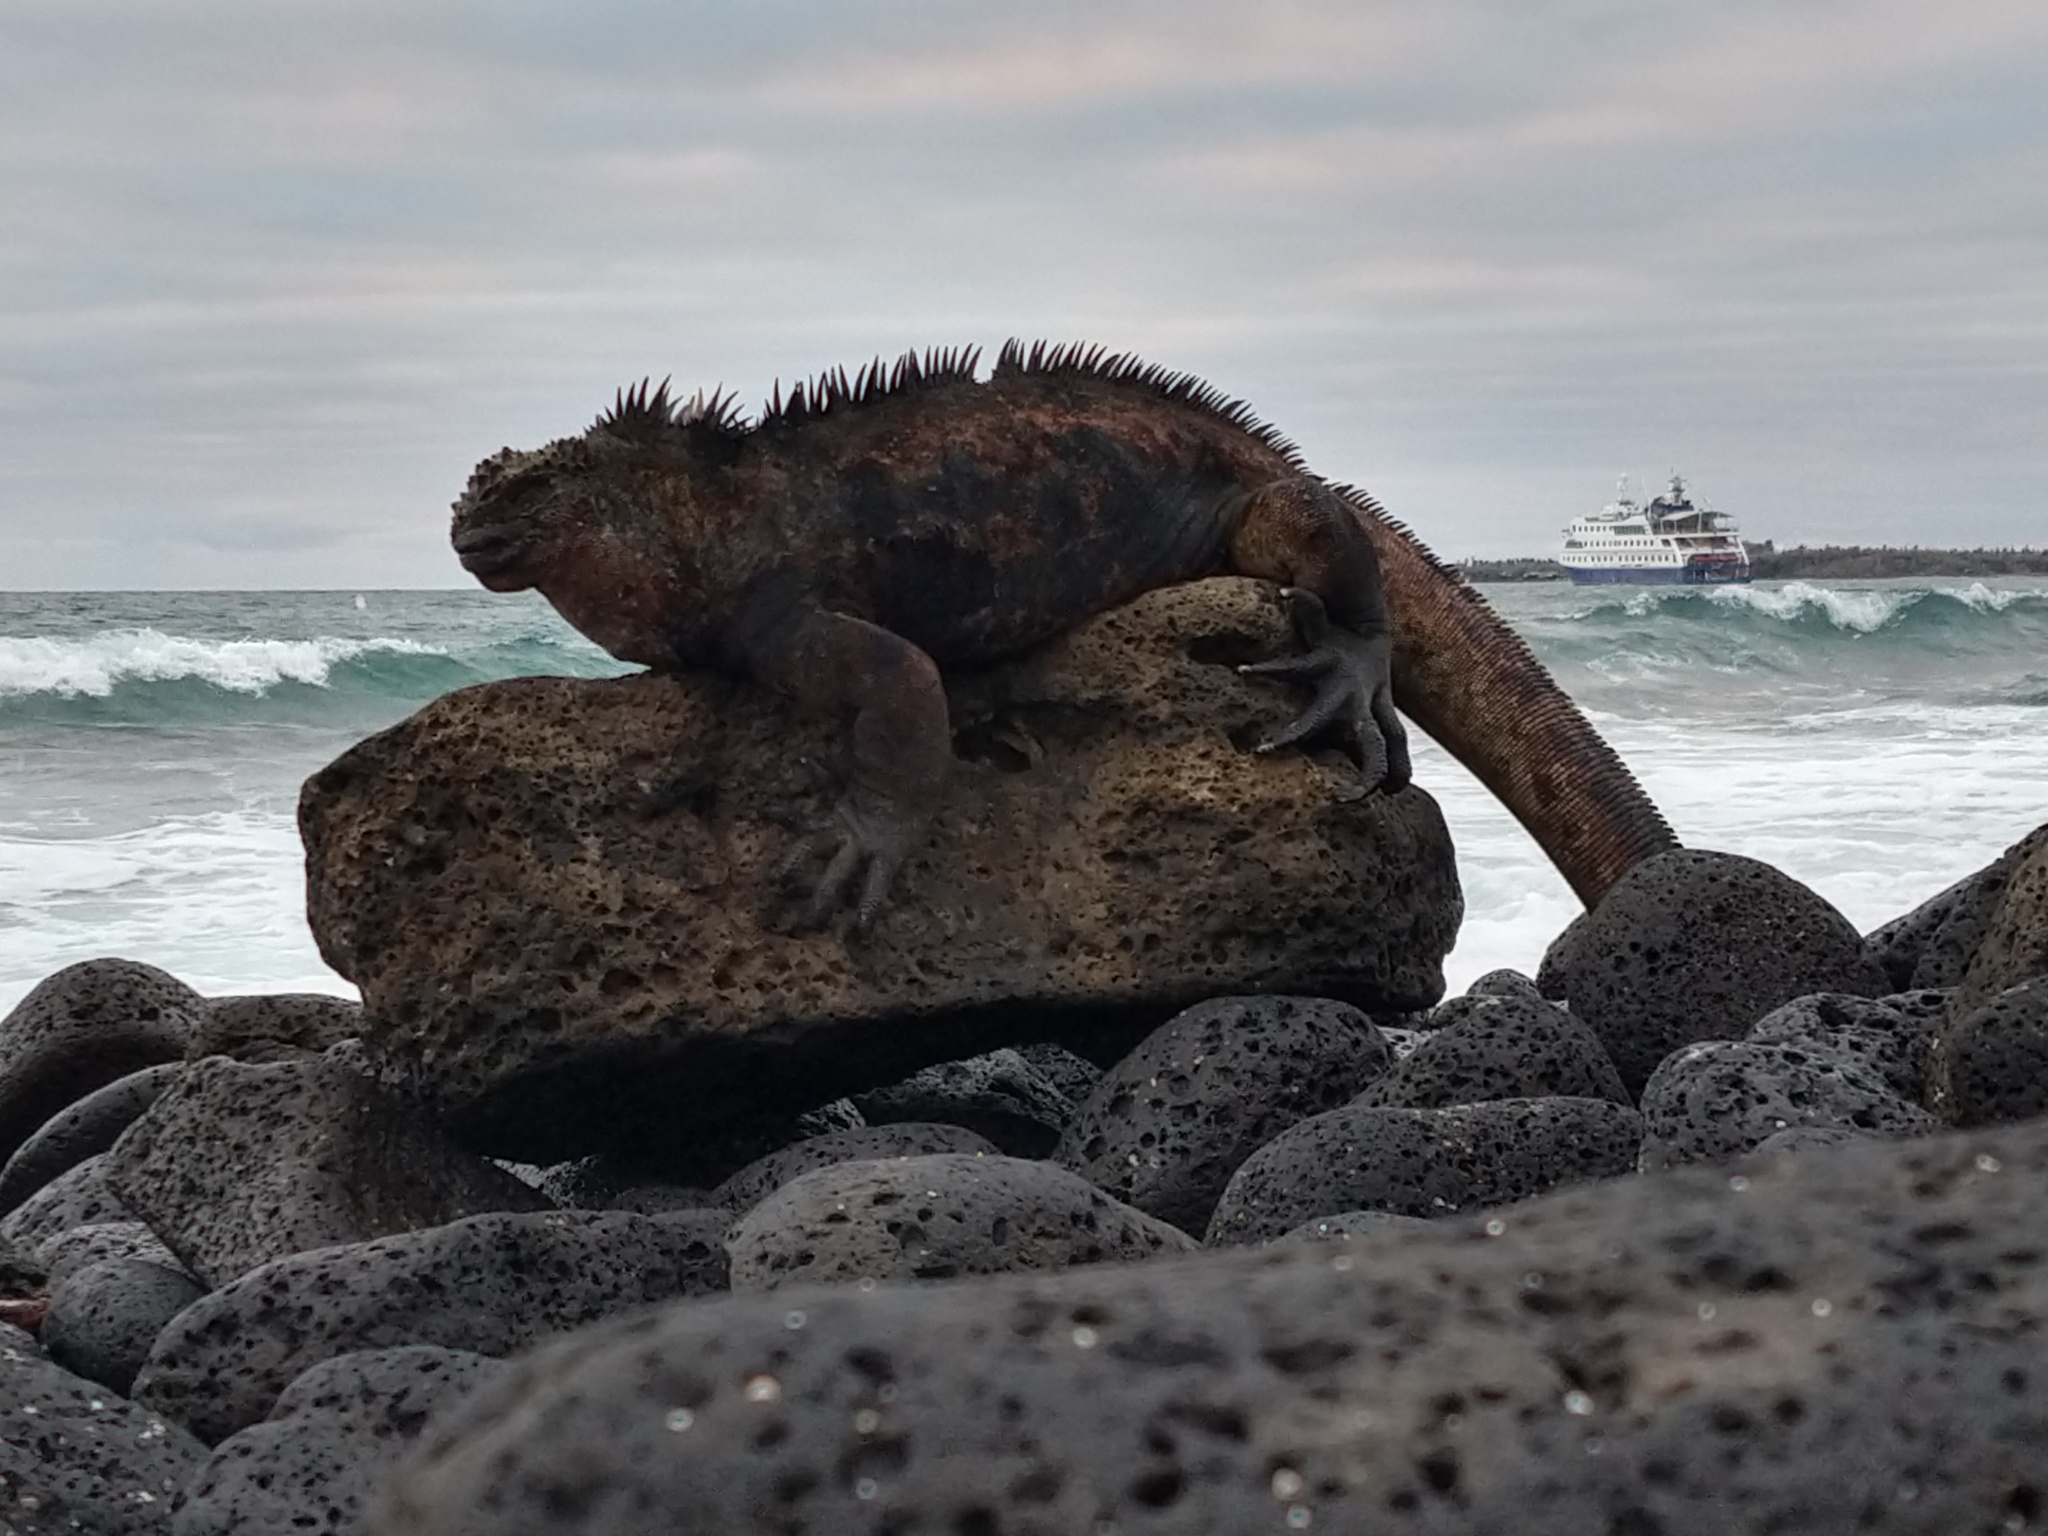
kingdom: Animalia
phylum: Chordata
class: Squamata
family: Iguanidae
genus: Amblyrhynchus
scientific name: Amblyrhynchus cristatus
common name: Marine iguana
